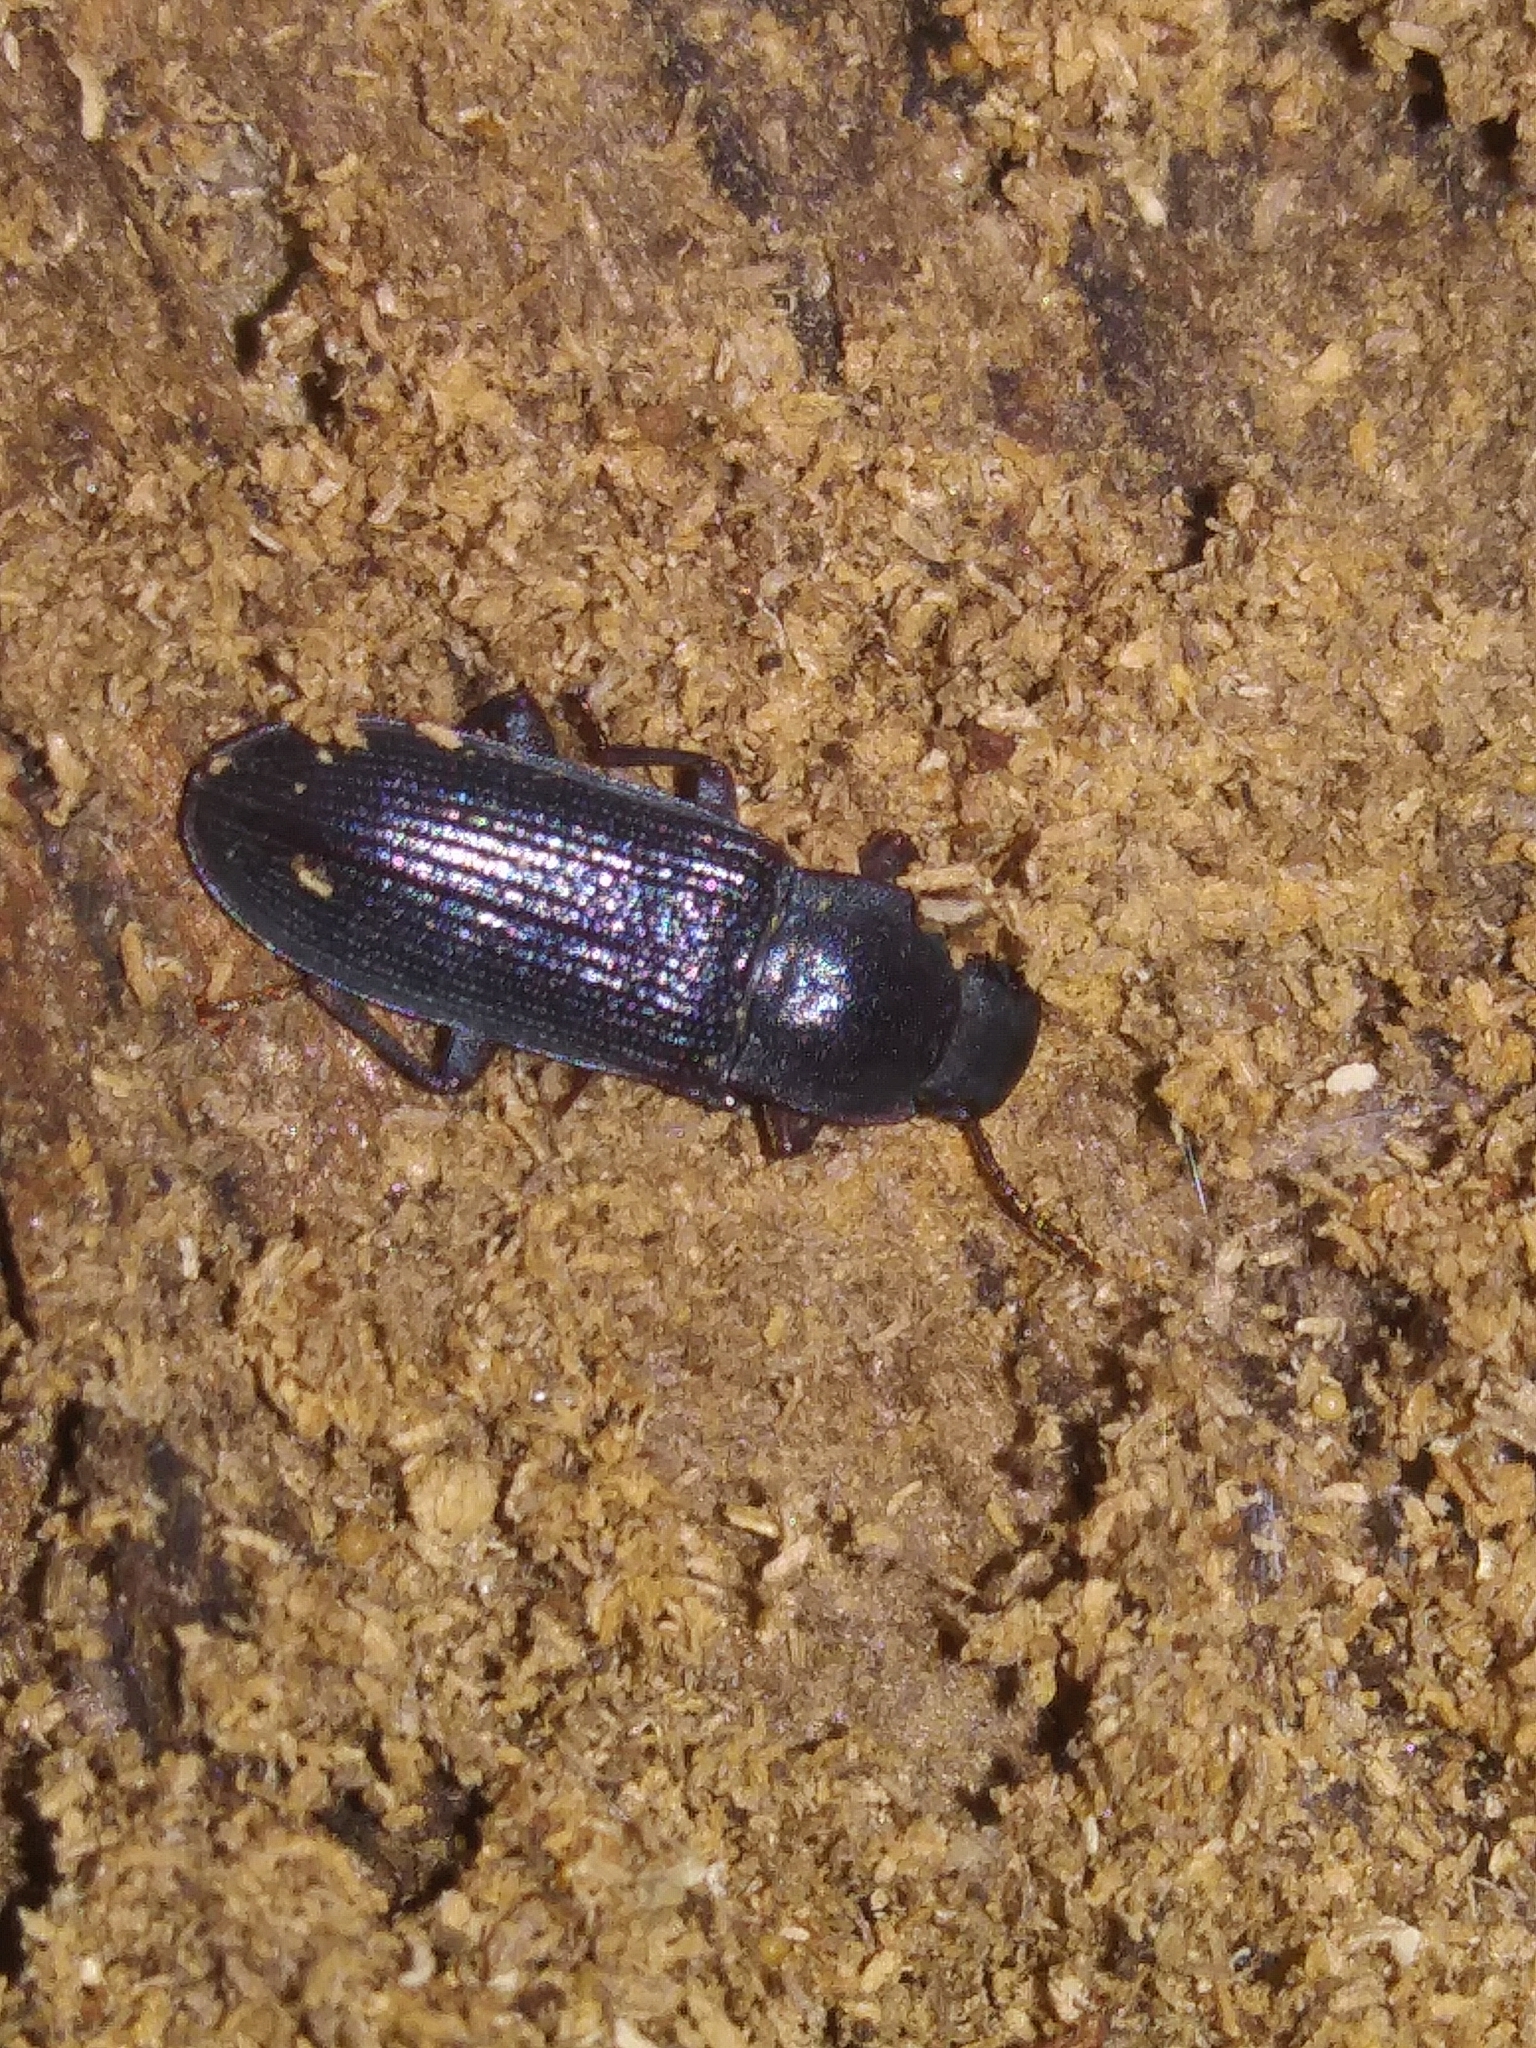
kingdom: Animalia
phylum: Arthropoda
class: Insecta
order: Coleoptera
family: Tenebrionidae
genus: Idiobates
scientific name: Idiobates castaneus
